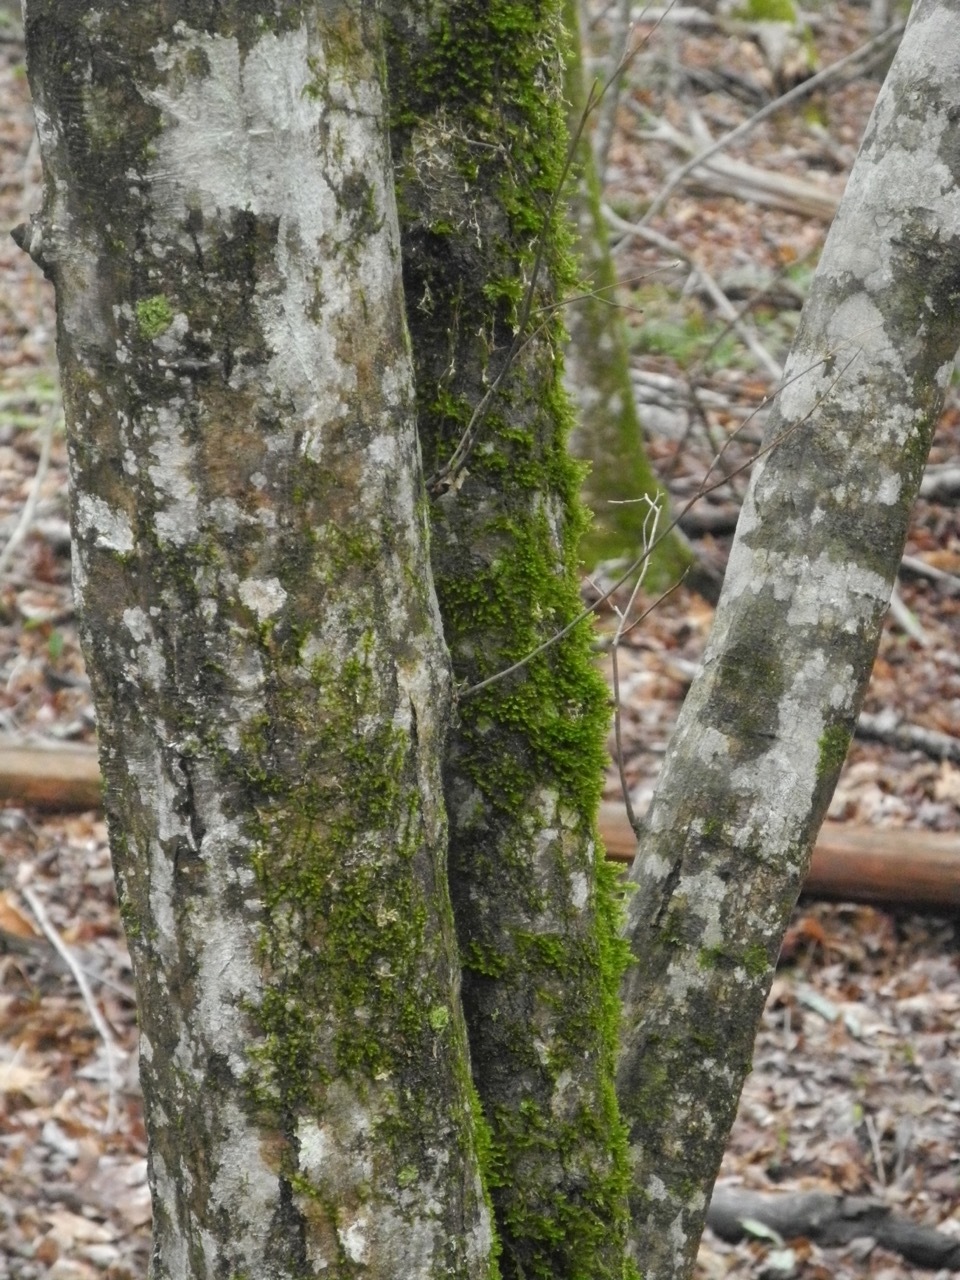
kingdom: Plantae
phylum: Tracheophyta
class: Magnoliopsida
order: Fagales
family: Betulaceae
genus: Carpinus
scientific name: Carpinus caroliniana
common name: American hornbeam
